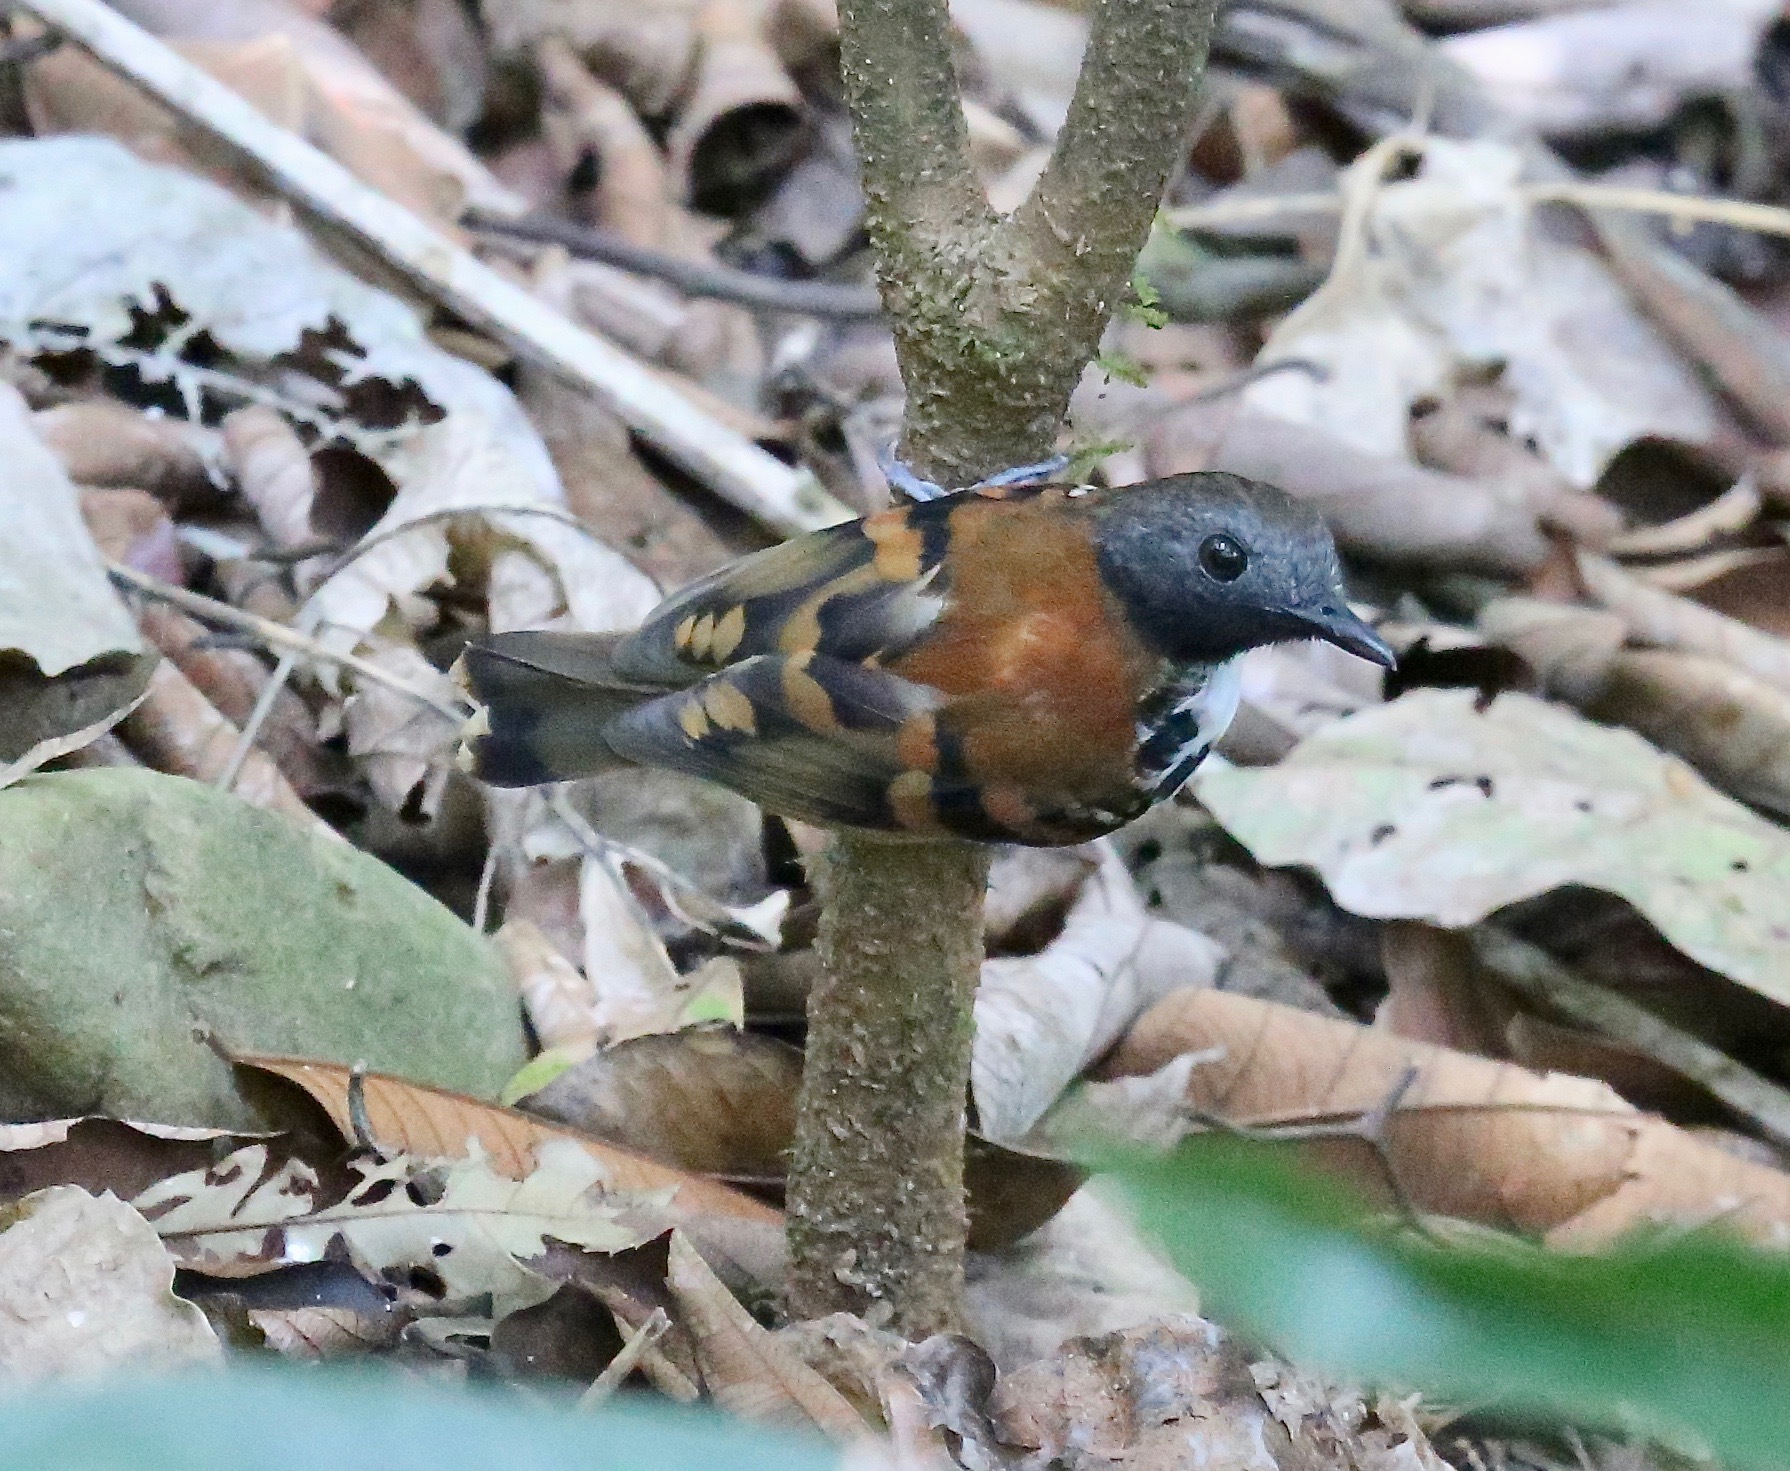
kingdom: Animalia
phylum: Chordata
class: Aves
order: Passeriformes
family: Thamnophilidae
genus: Hylophylax
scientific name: Hylophylax naevioides
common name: Spotted antbird
